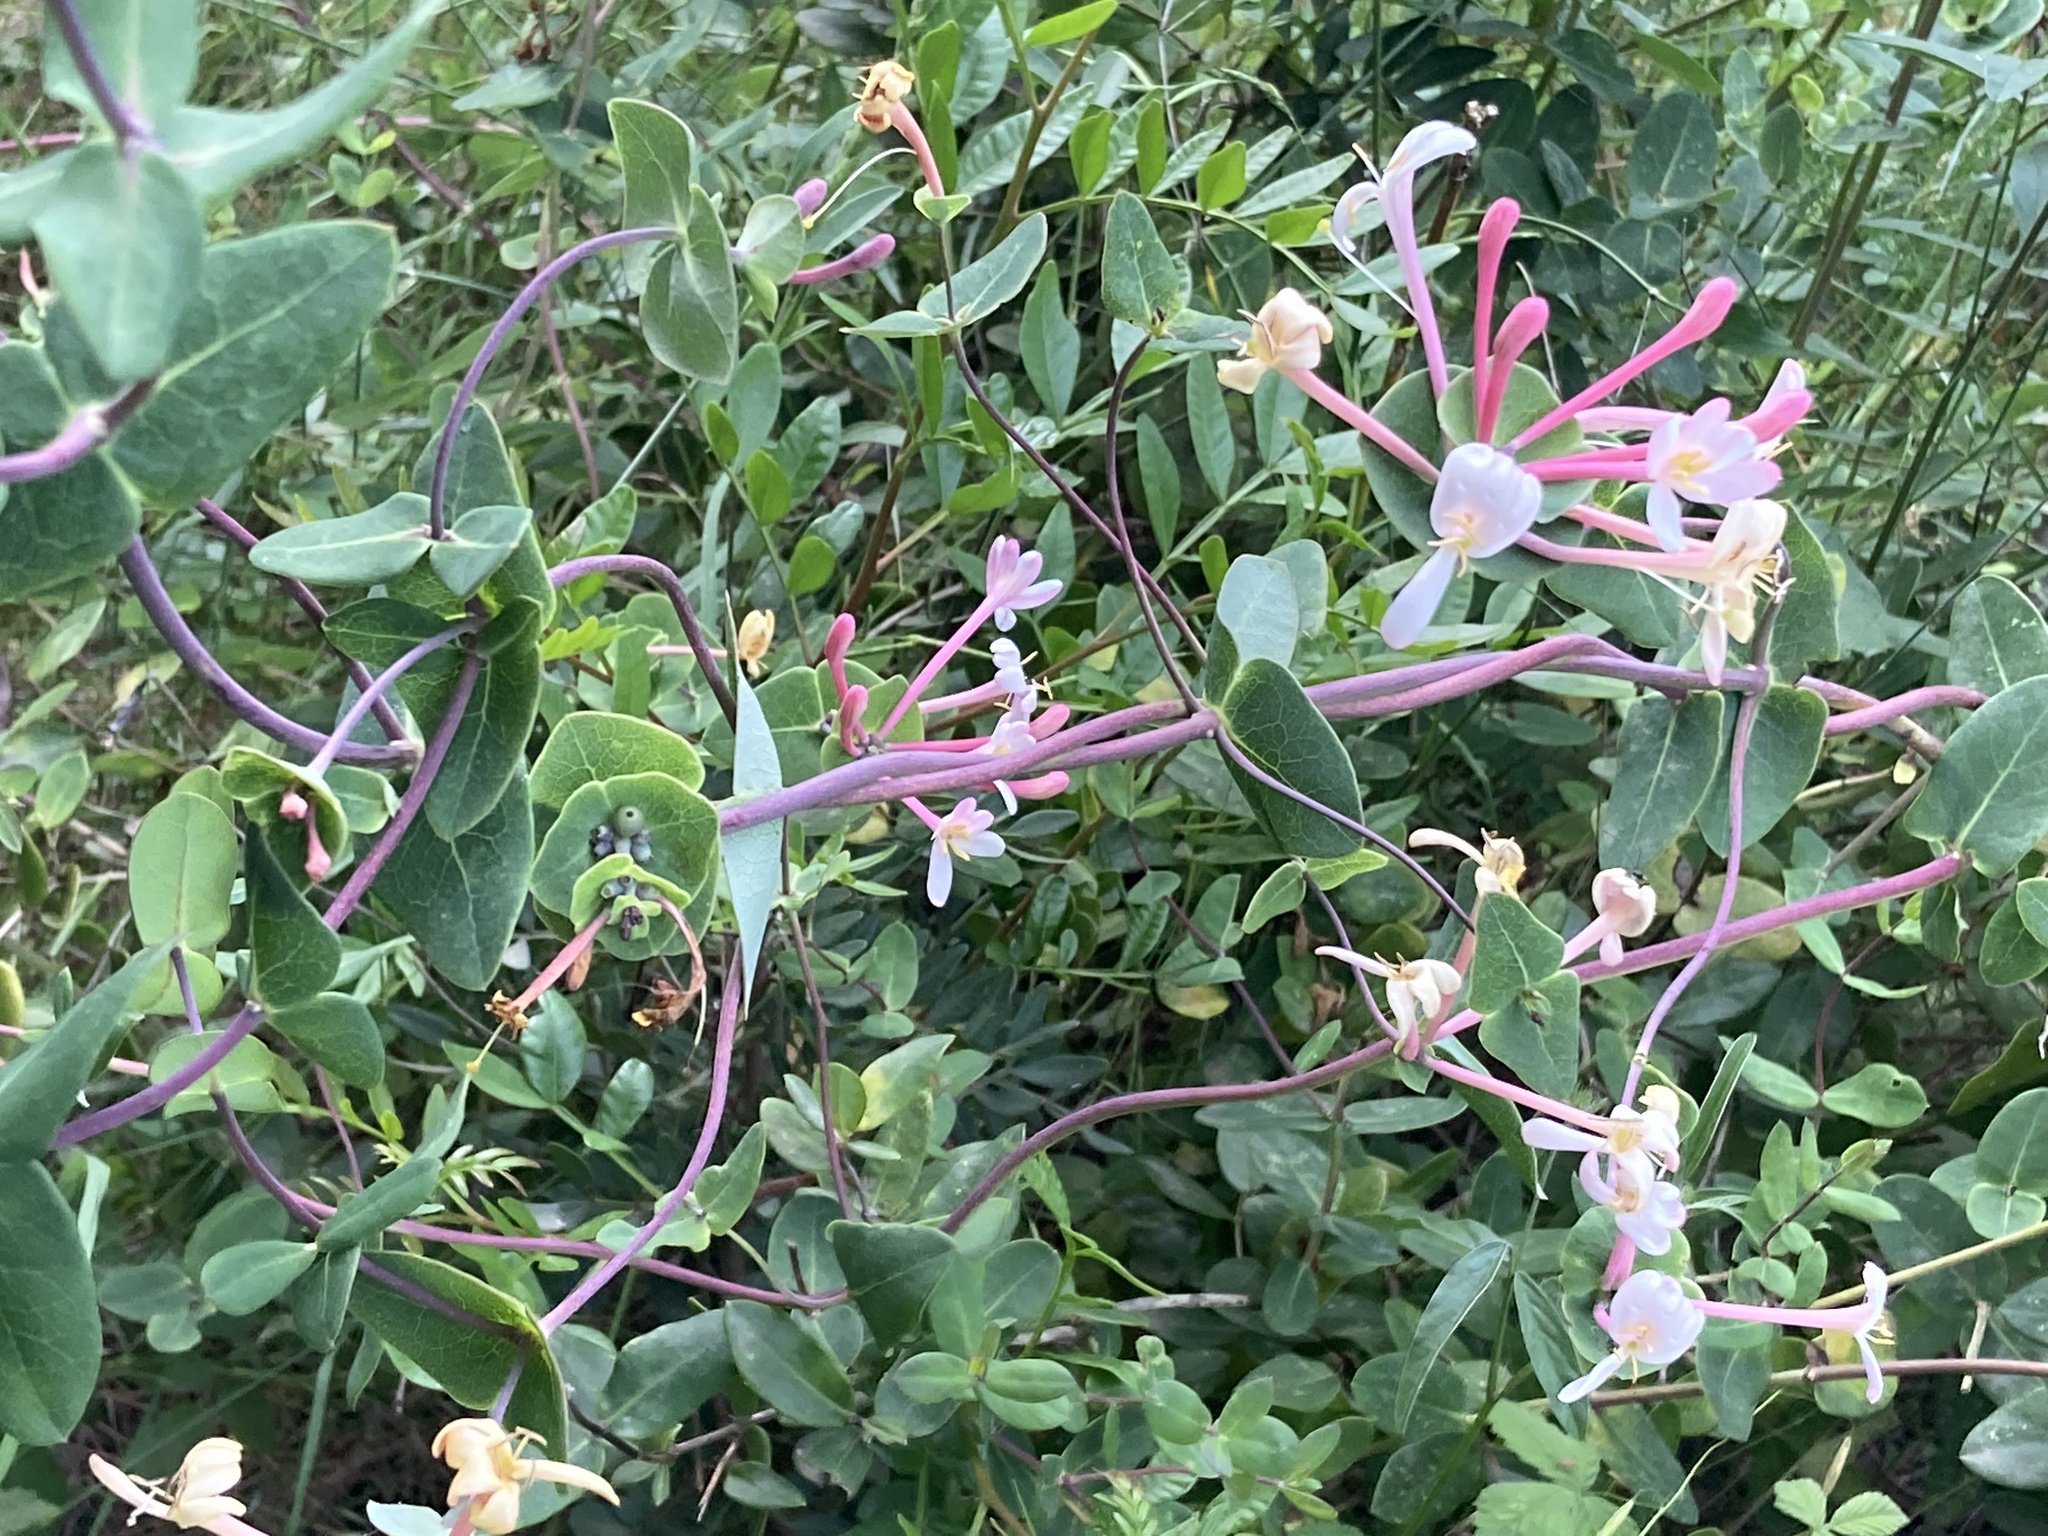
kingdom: Plantae
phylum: Tracheophyta
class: Magnoliopsida
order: Dipsacales
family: Caprifoliaceae
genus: Lonicera
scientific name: Lonicera implexa
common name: Minorca honeysuckle
